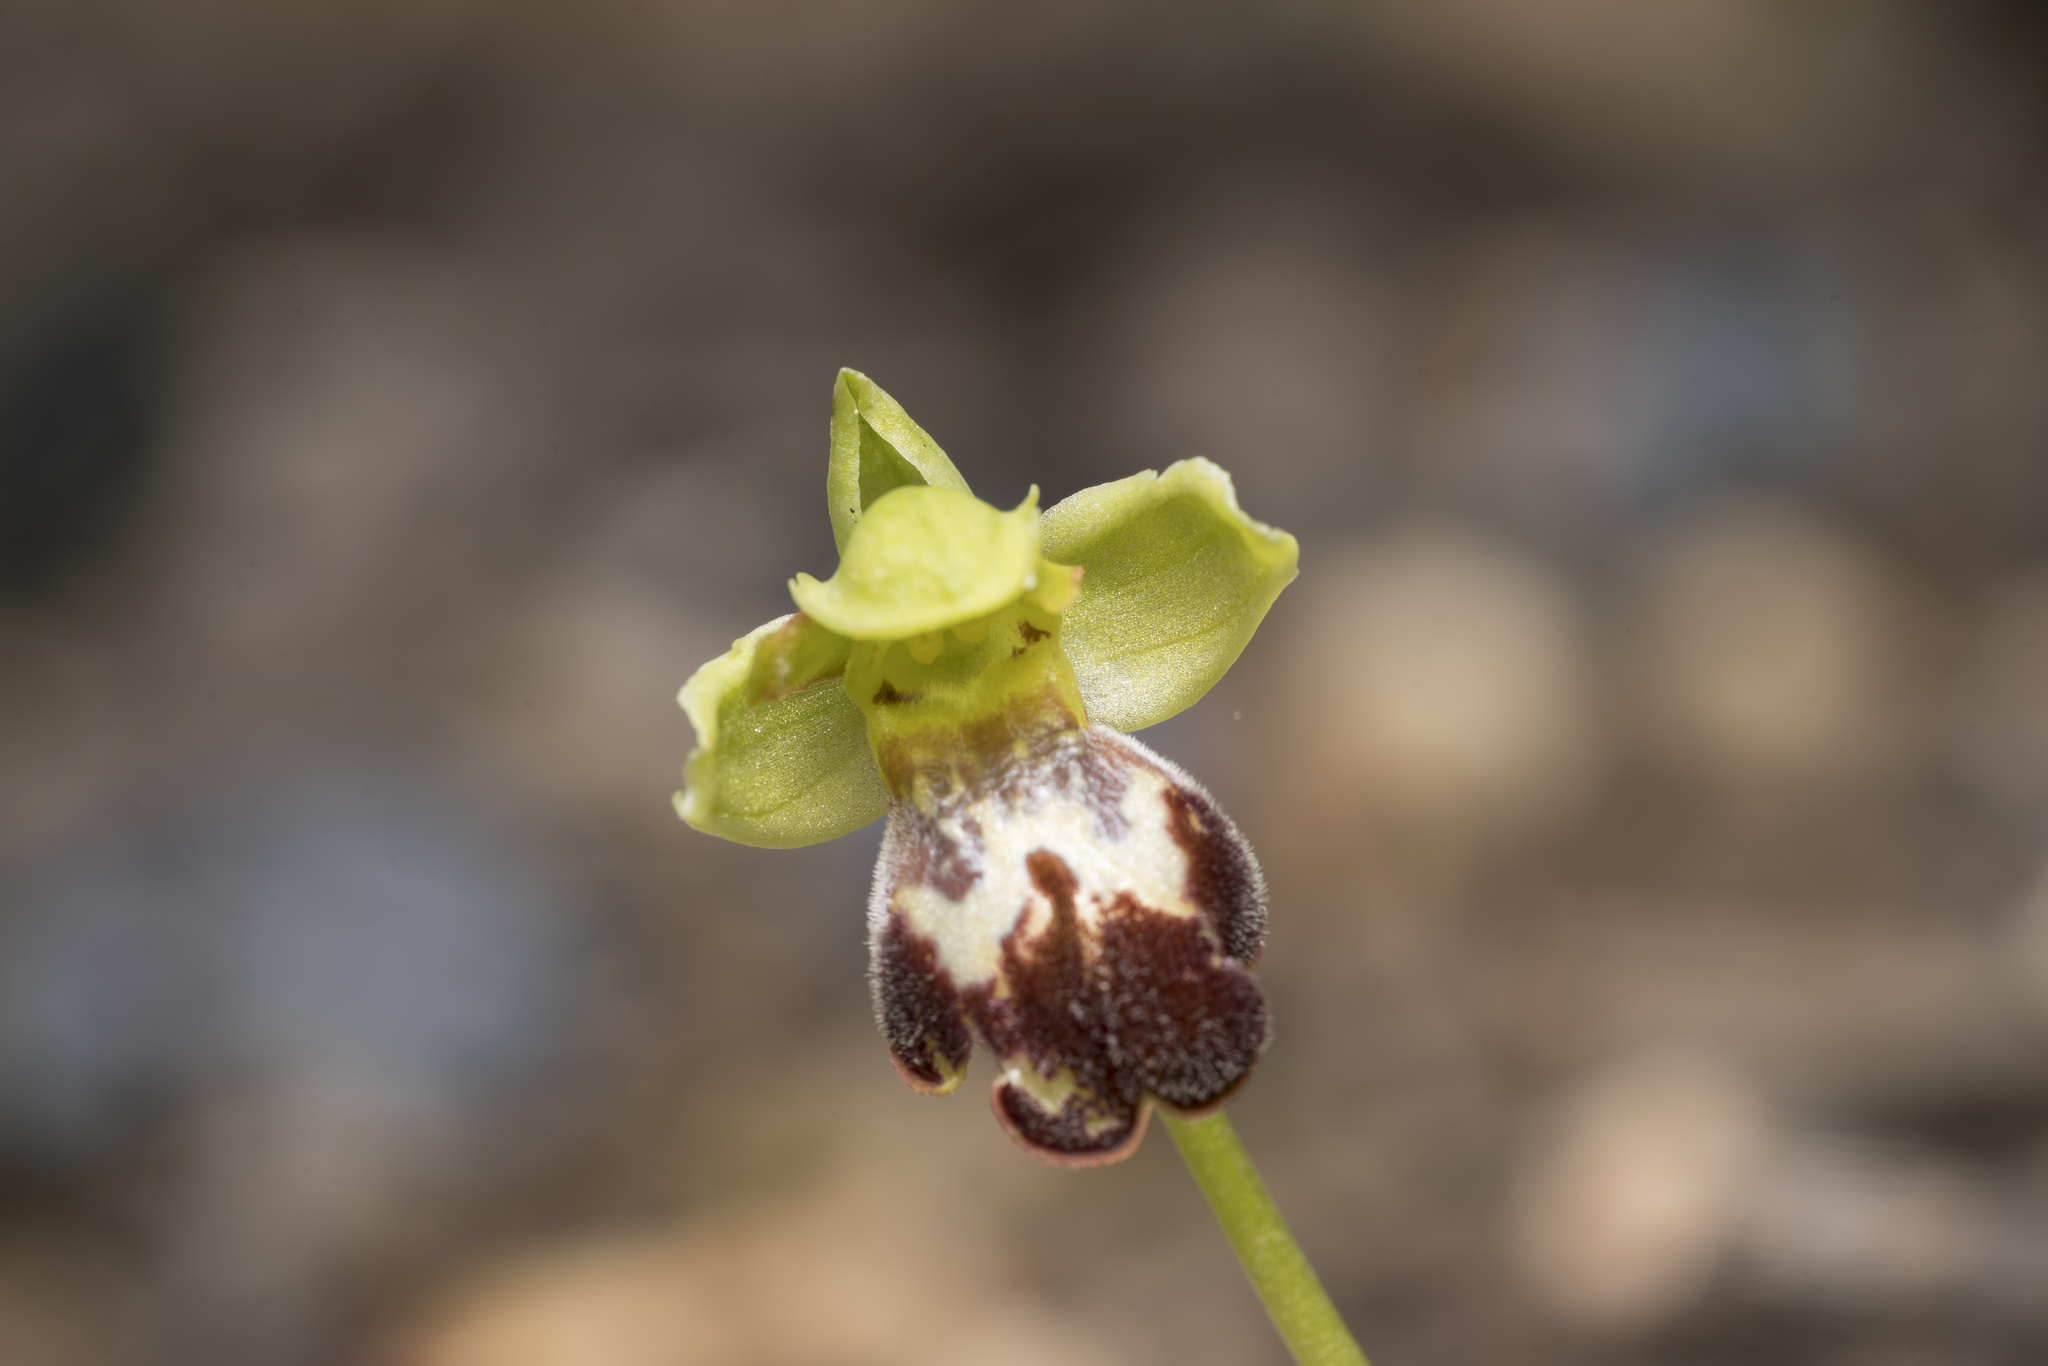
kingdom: Plantae
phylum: Tracheophyta
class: Liliopsida
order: Asparagales
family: Orchidaceae
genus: Ophrys
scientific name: Ophrys brigittae
